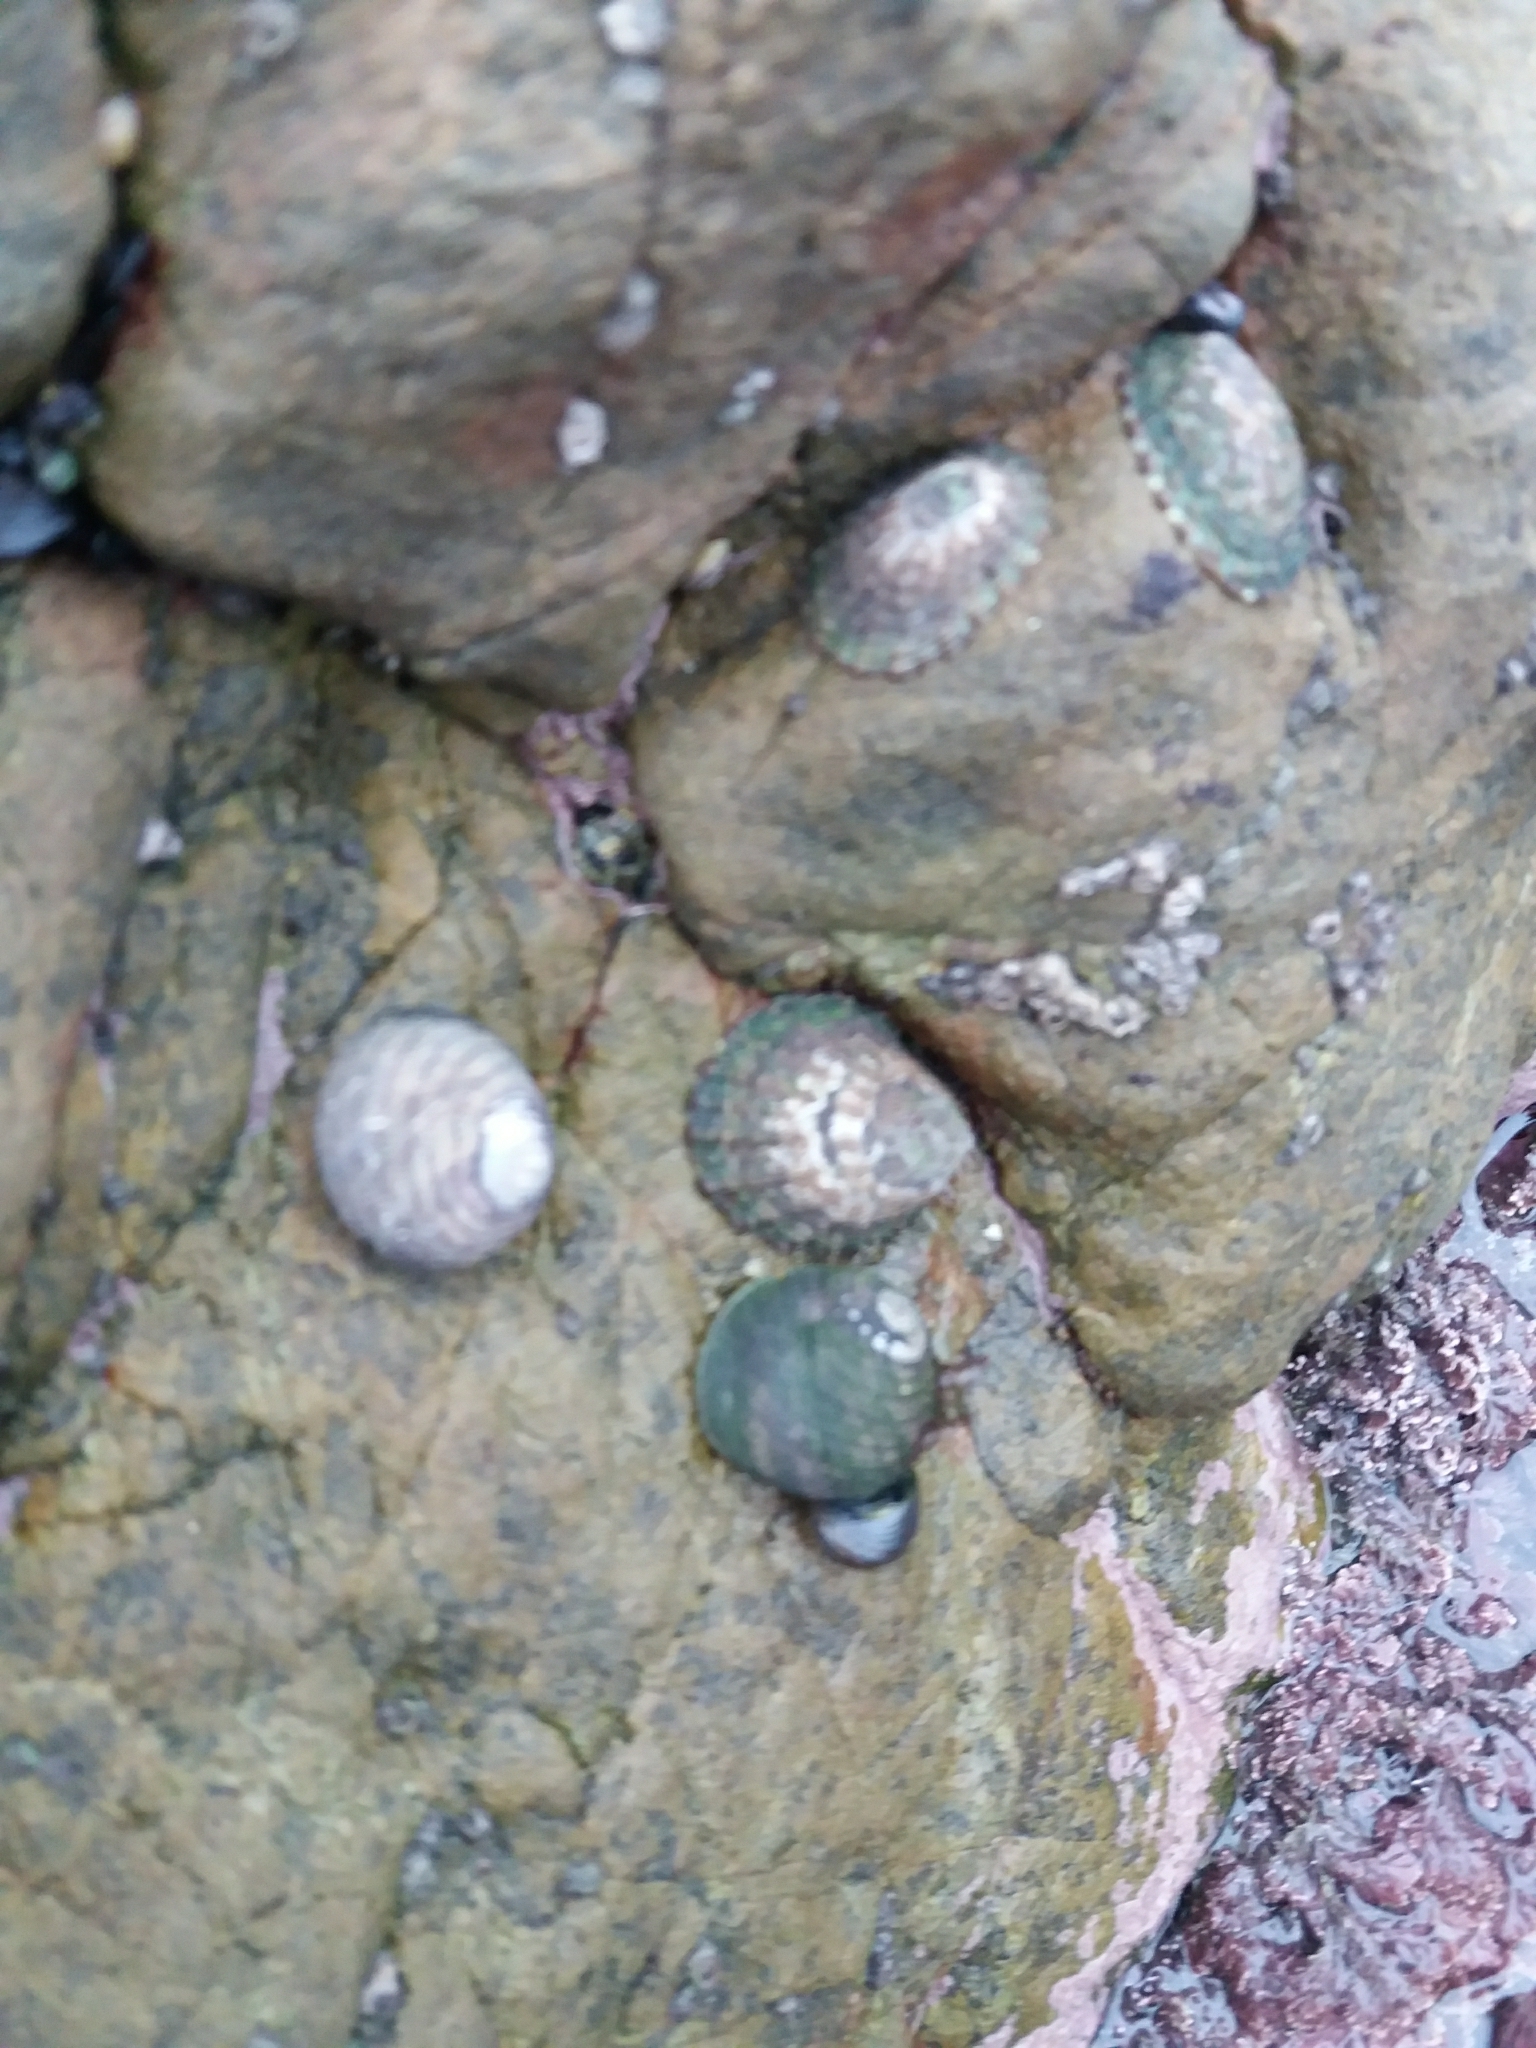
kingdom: Animalia
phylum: Mollusca
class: Gastropoda
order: Trochida
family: Trochidae
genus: Diloma
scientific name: Diloma aethiops
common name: Scorched monodont
